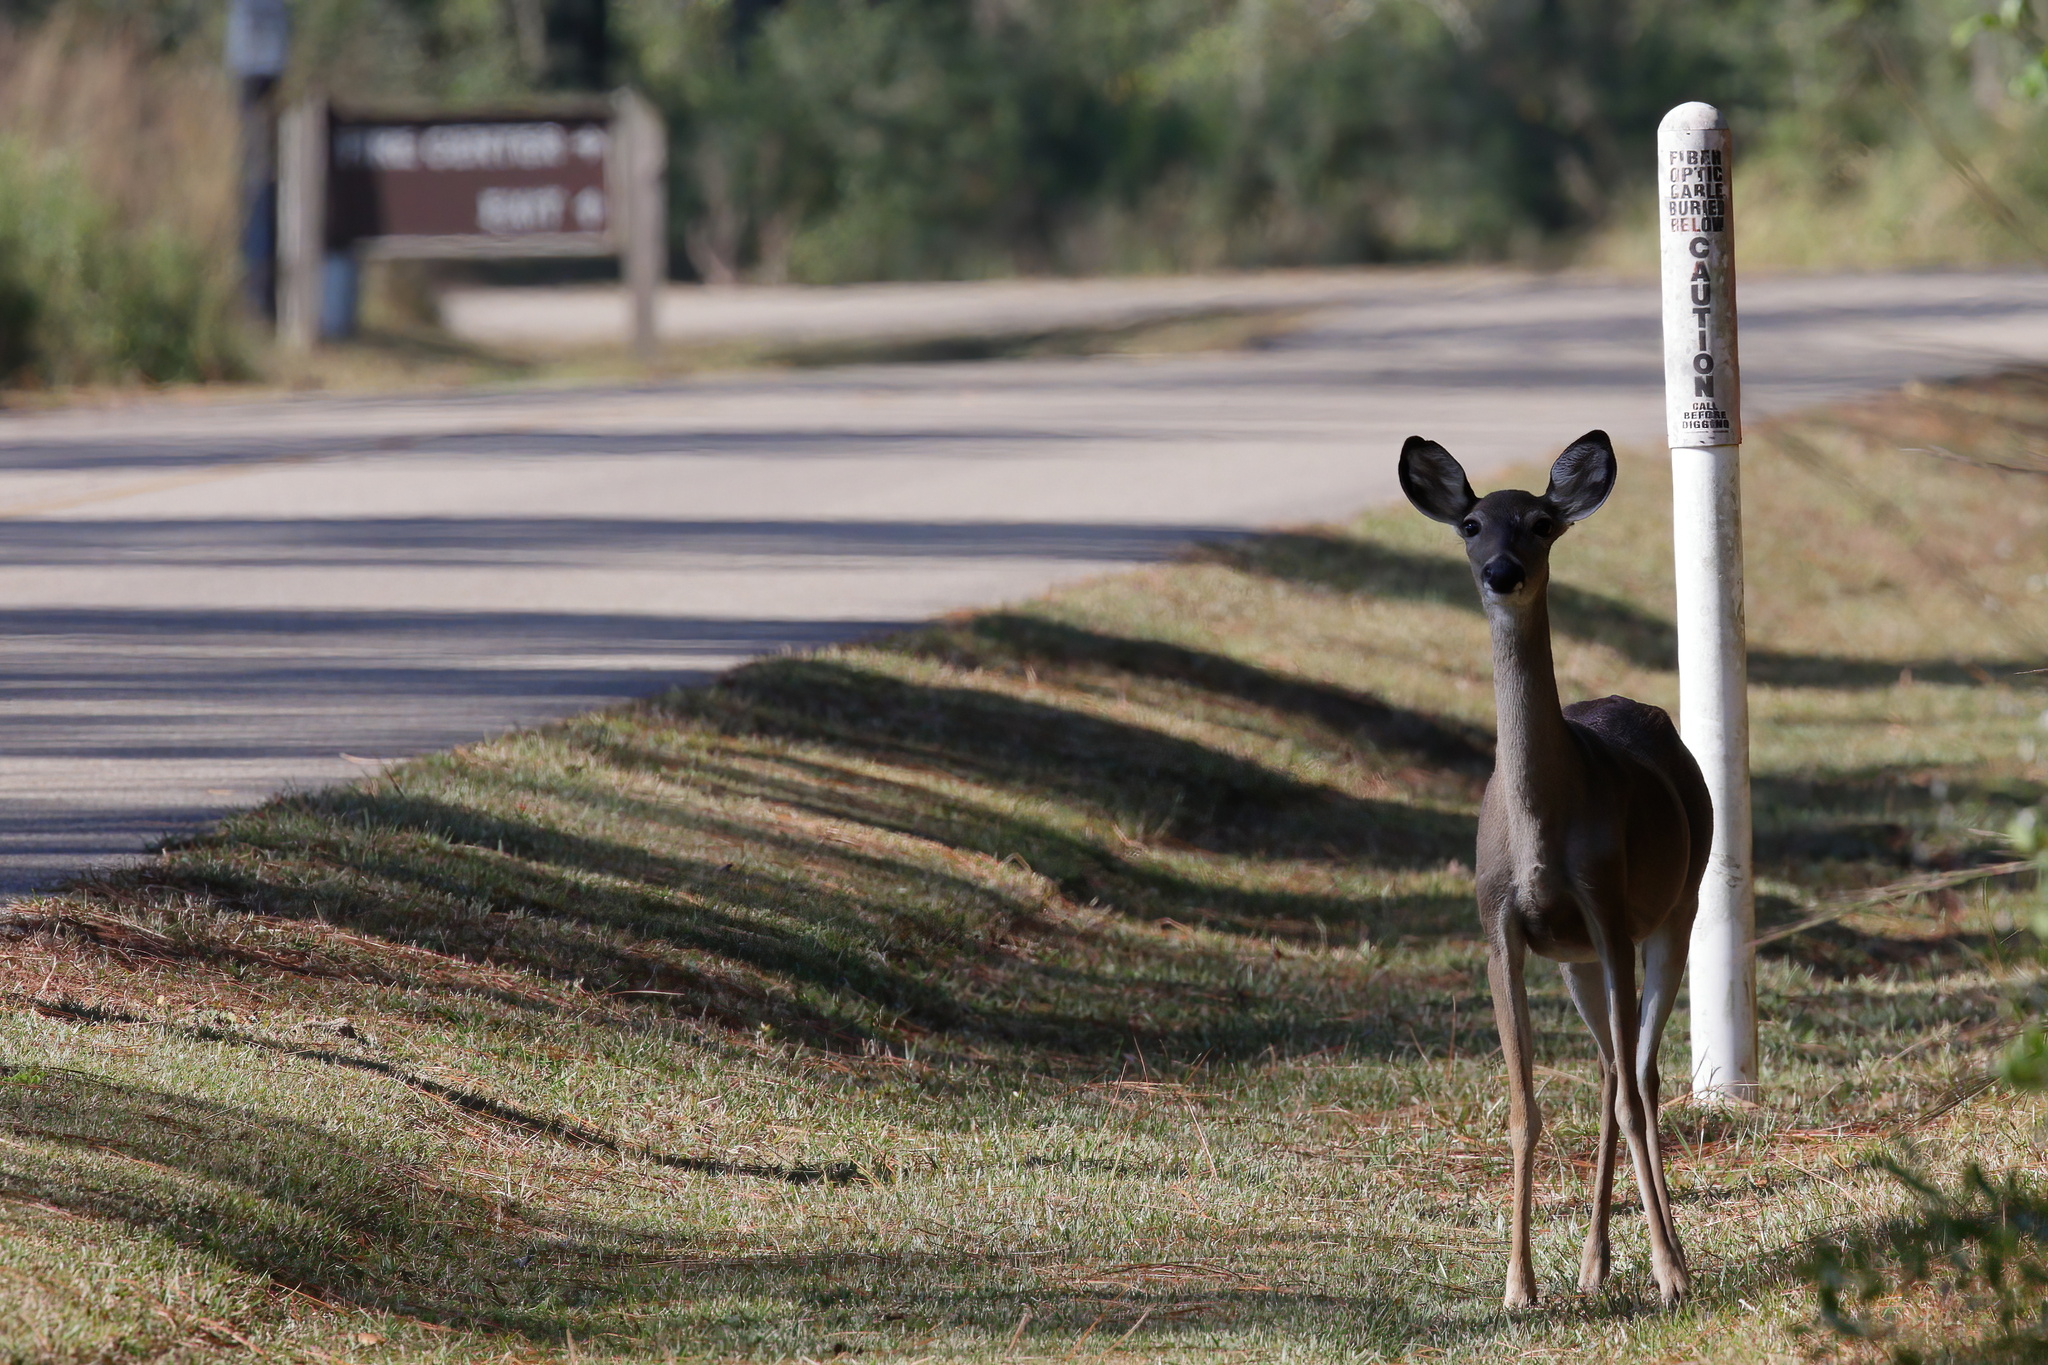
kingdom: Animalia
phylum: Chordata
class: Mammalia
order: Artiodactyla
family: Cervidae
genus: Odocoileus
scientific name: Odocoileus virginianus
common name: White-tailed deer
